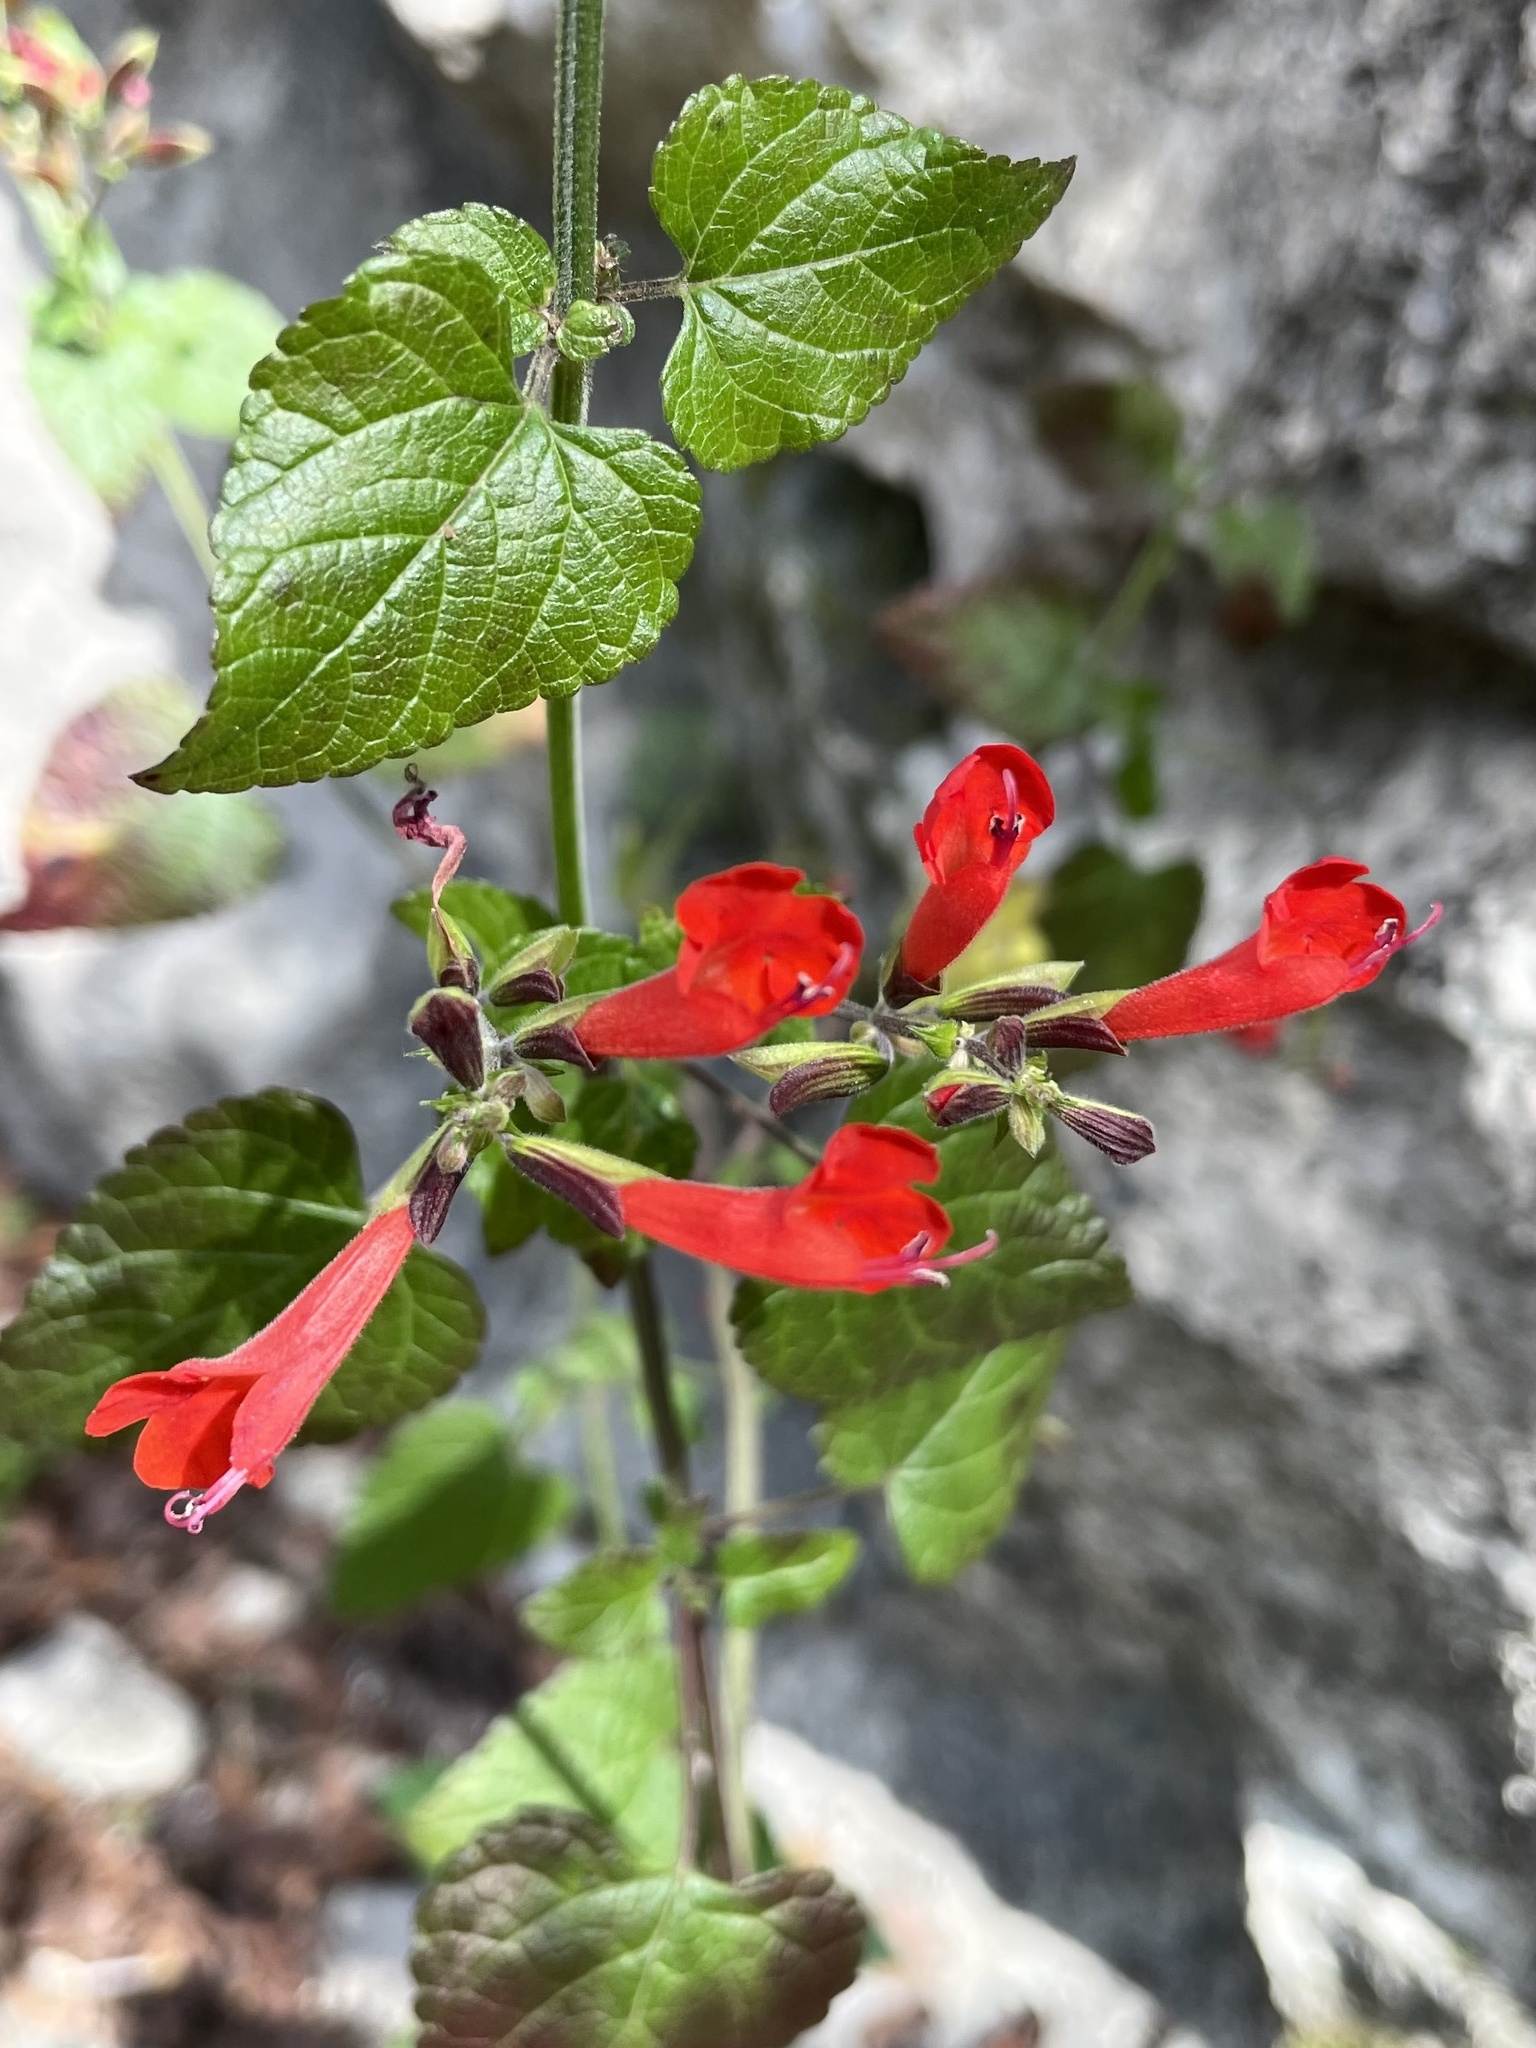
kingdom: Plantae
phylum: Tracheophyta
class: Magnoliopsida
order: Lamiales
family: Lamiaceae
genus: Salvia
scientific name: Salvia coccinea
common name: Blood sage
